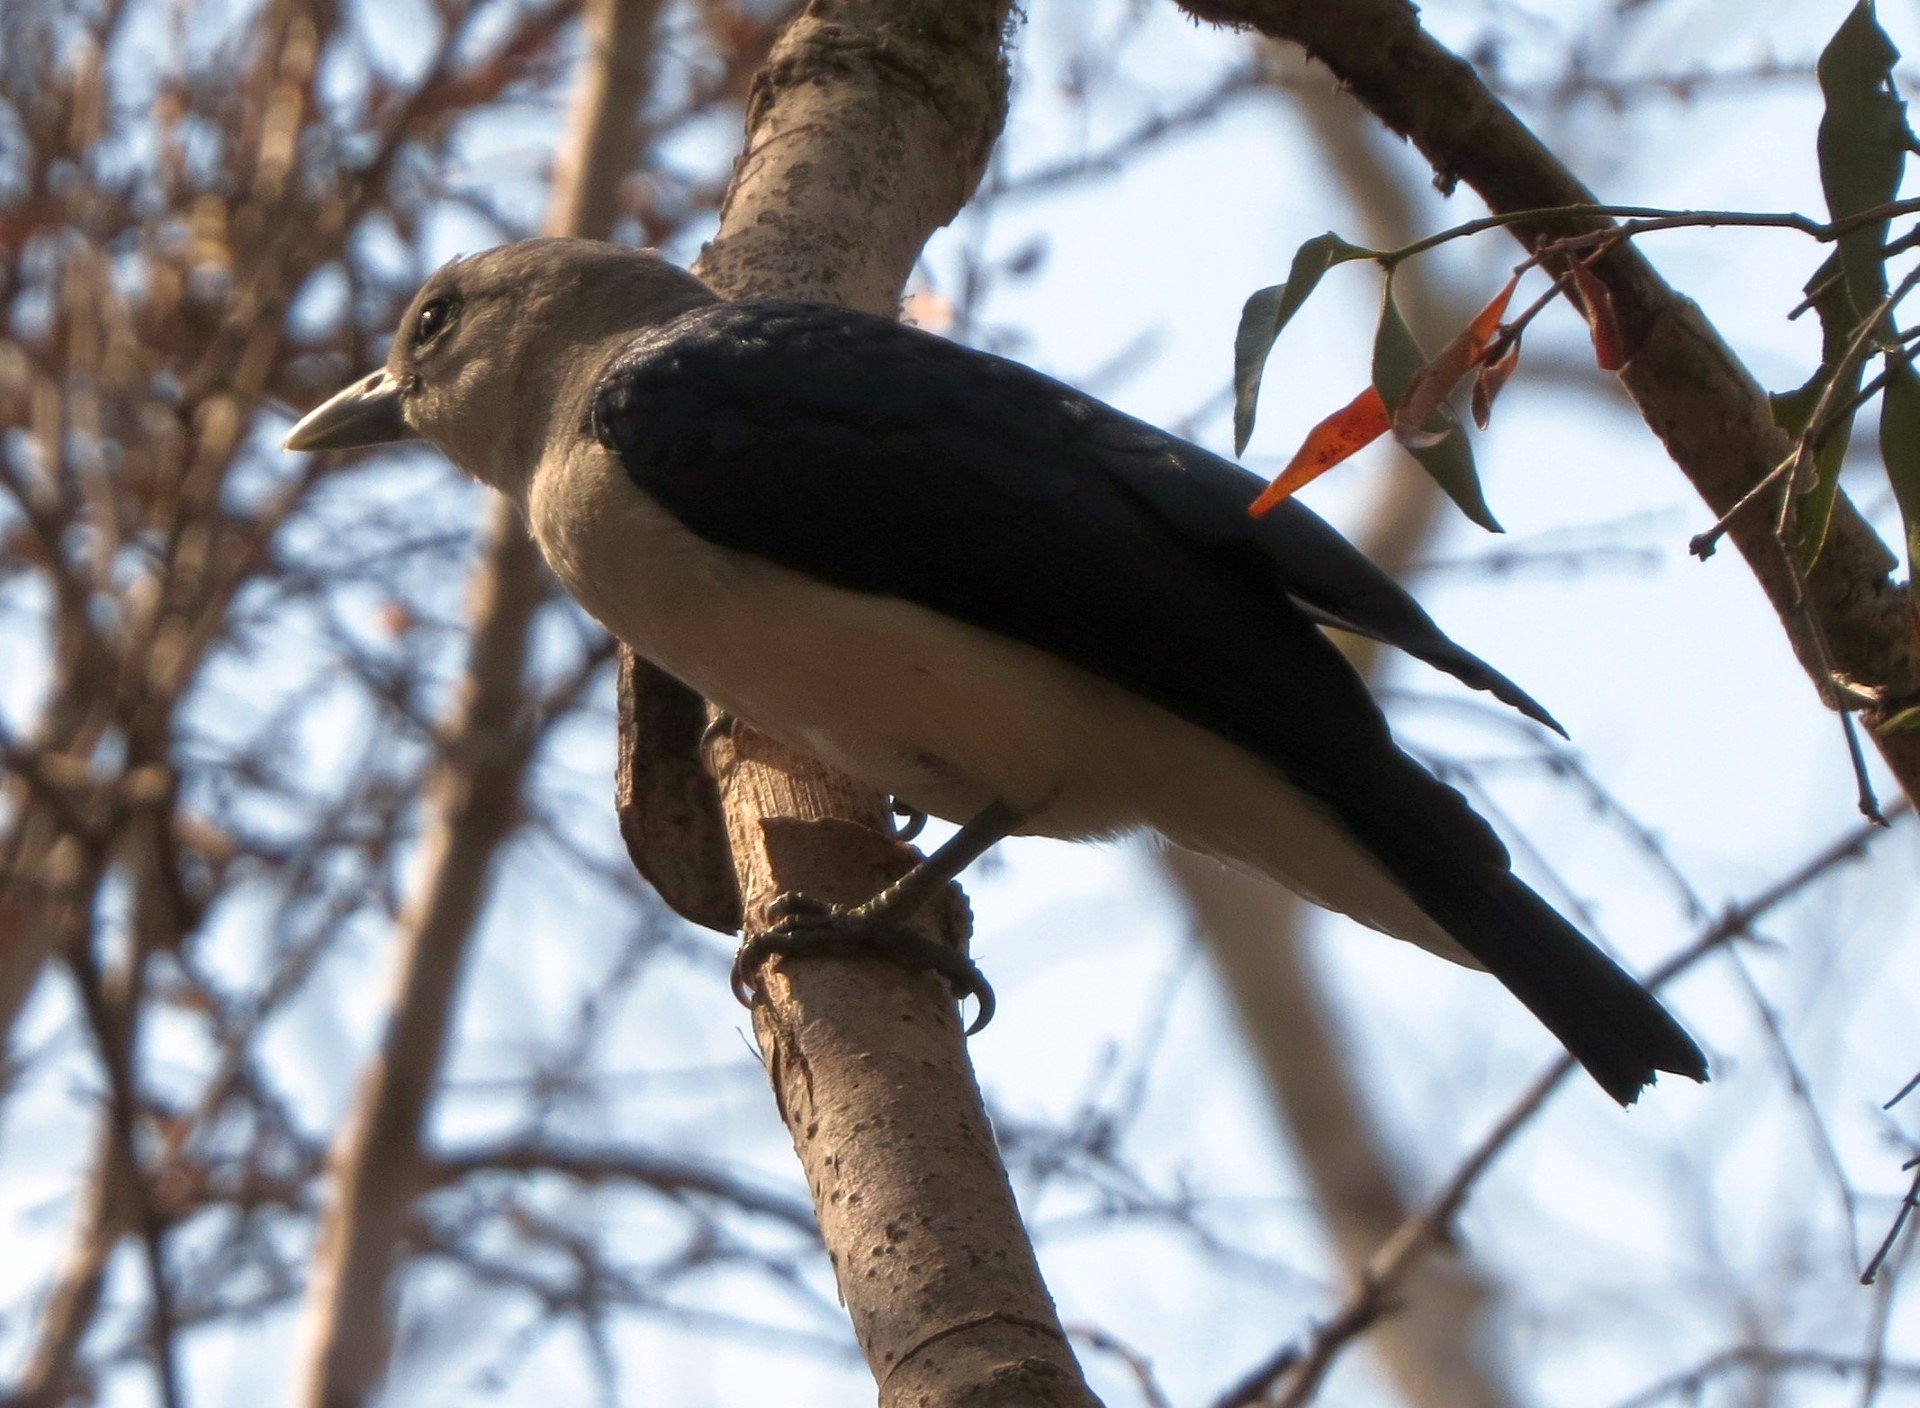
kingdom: Animalia
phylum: Chordata
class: Aves
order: Passeriformes
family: Vangidae
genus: Artamella
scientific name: Artamella viridis
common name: White-headed vanga
